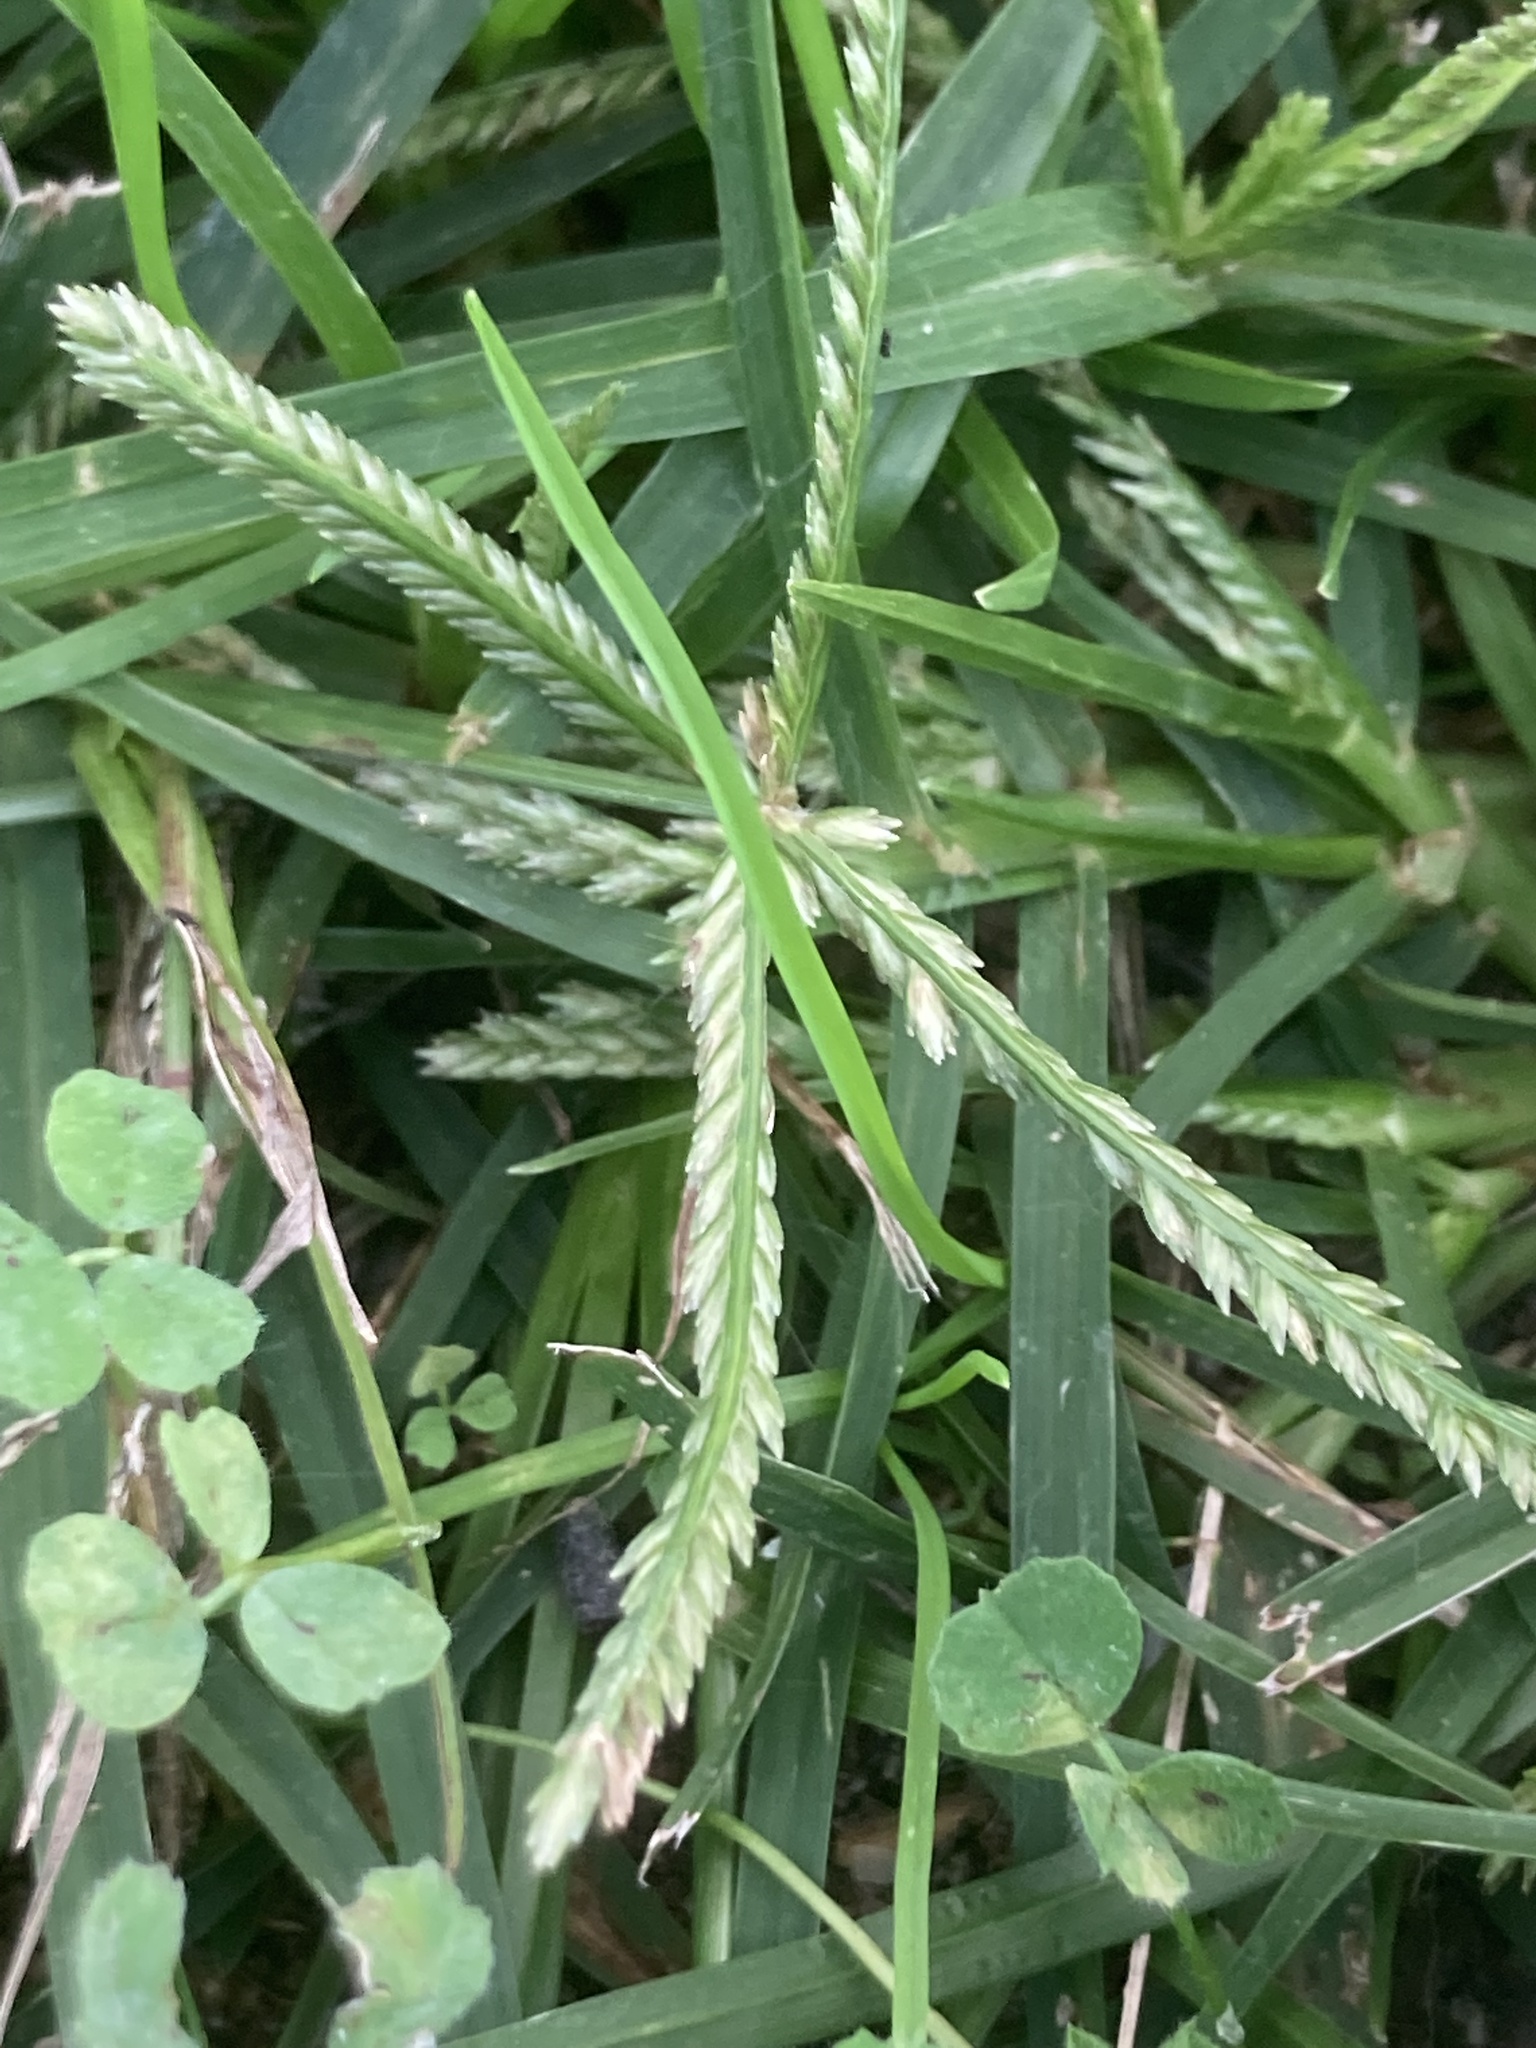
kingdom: Plantae
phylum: Tracheophyta
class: Liliopsida
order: Poales
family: Poaceae
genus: Eleusine
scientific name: Eleusine indica
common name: Yard-grass
